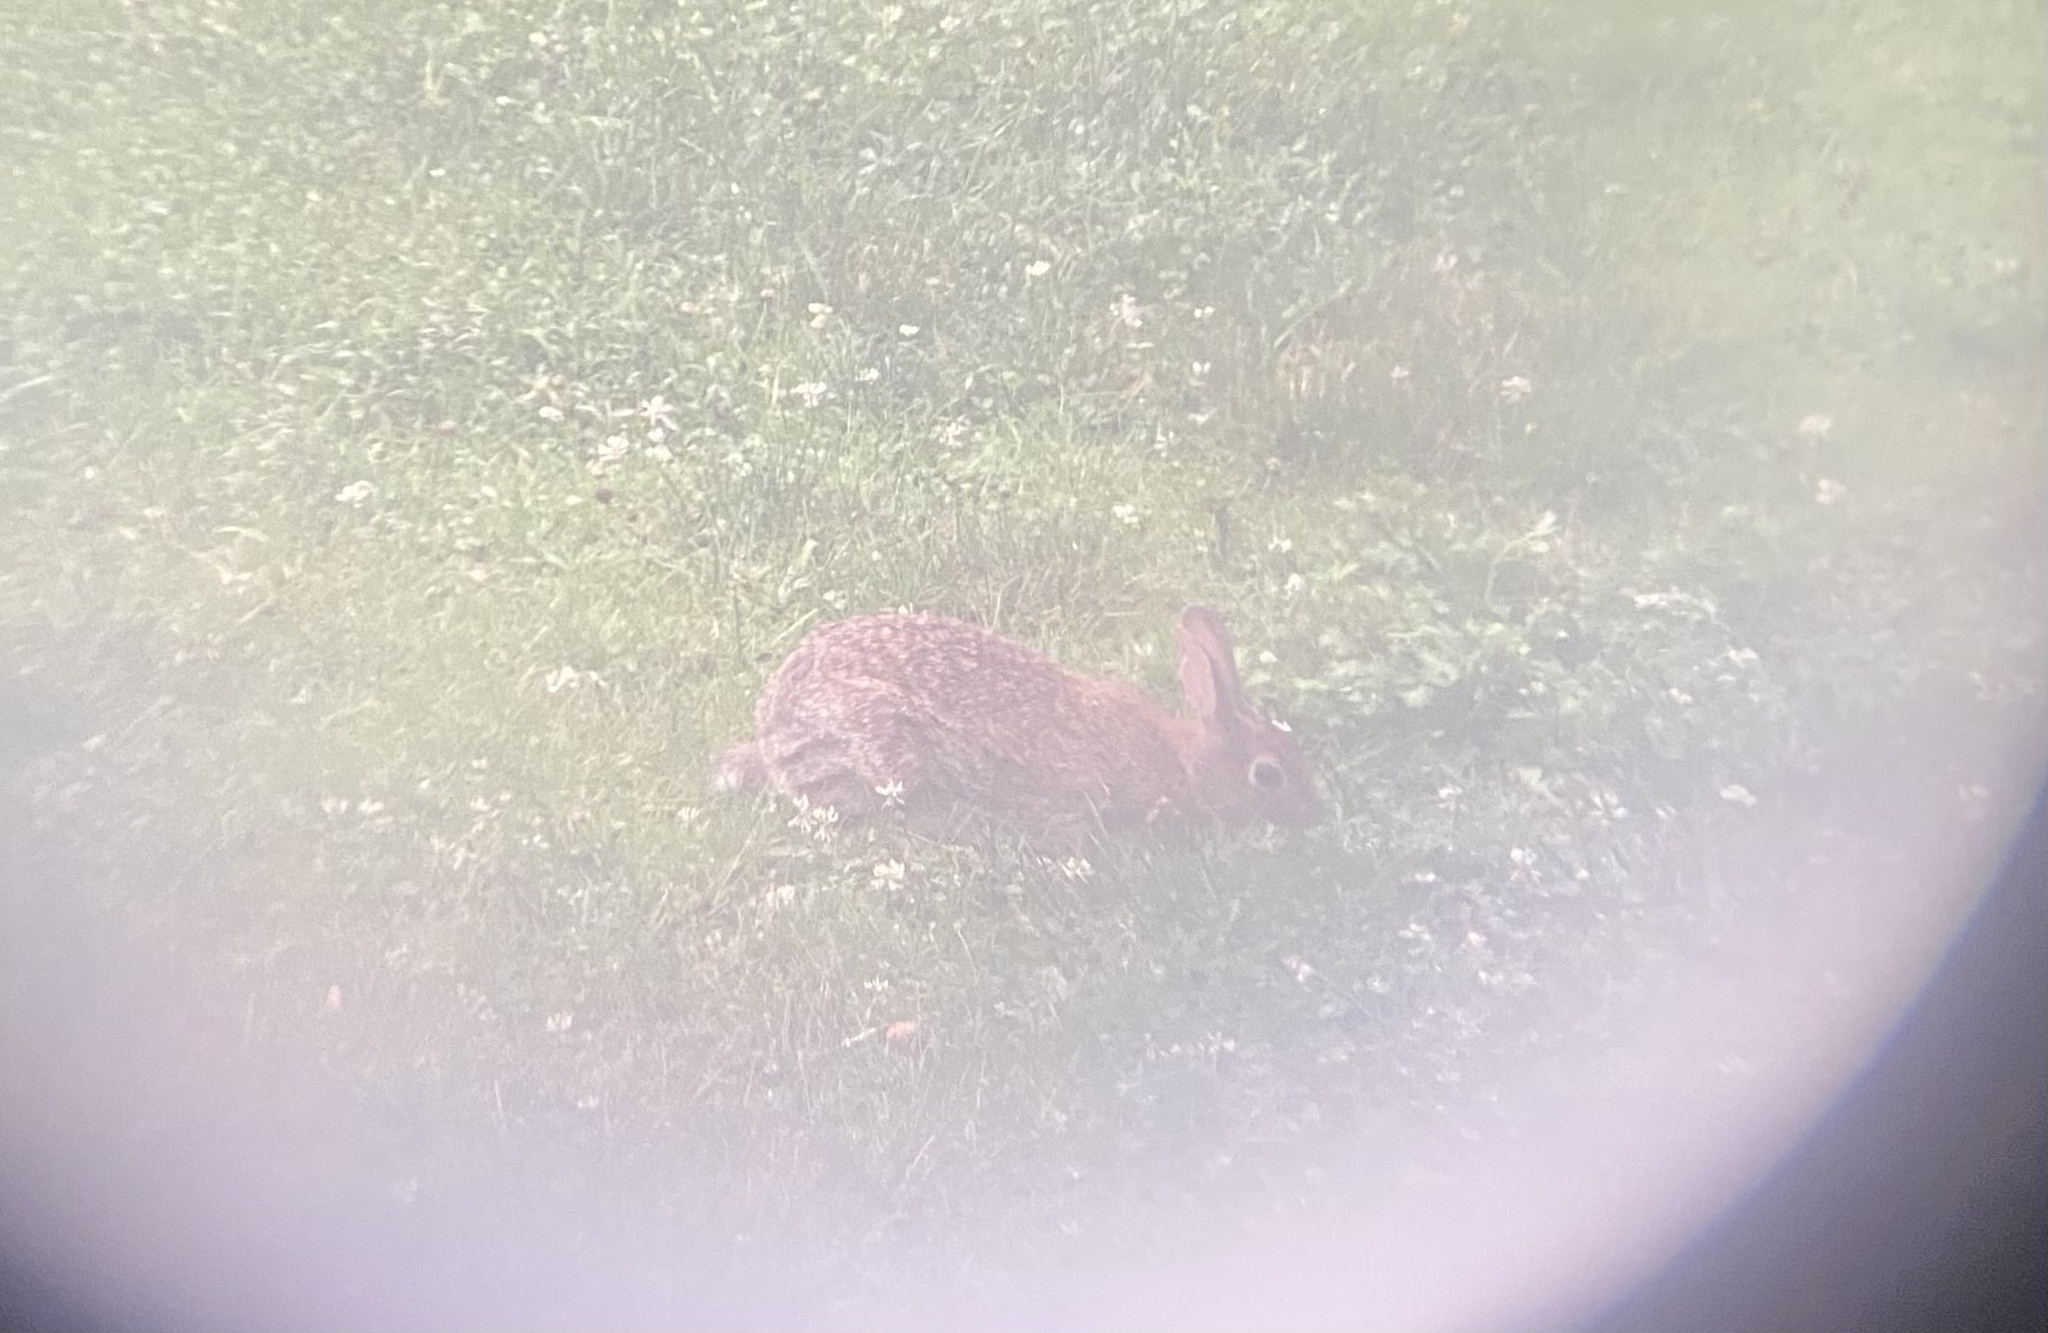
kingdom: Animalia
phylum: Chordata
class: Mammalia
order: Lagomorpha
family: Leporidae
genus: Sylvilagus
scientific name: Sylvilagus floridanus
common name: Eastern cottontail
